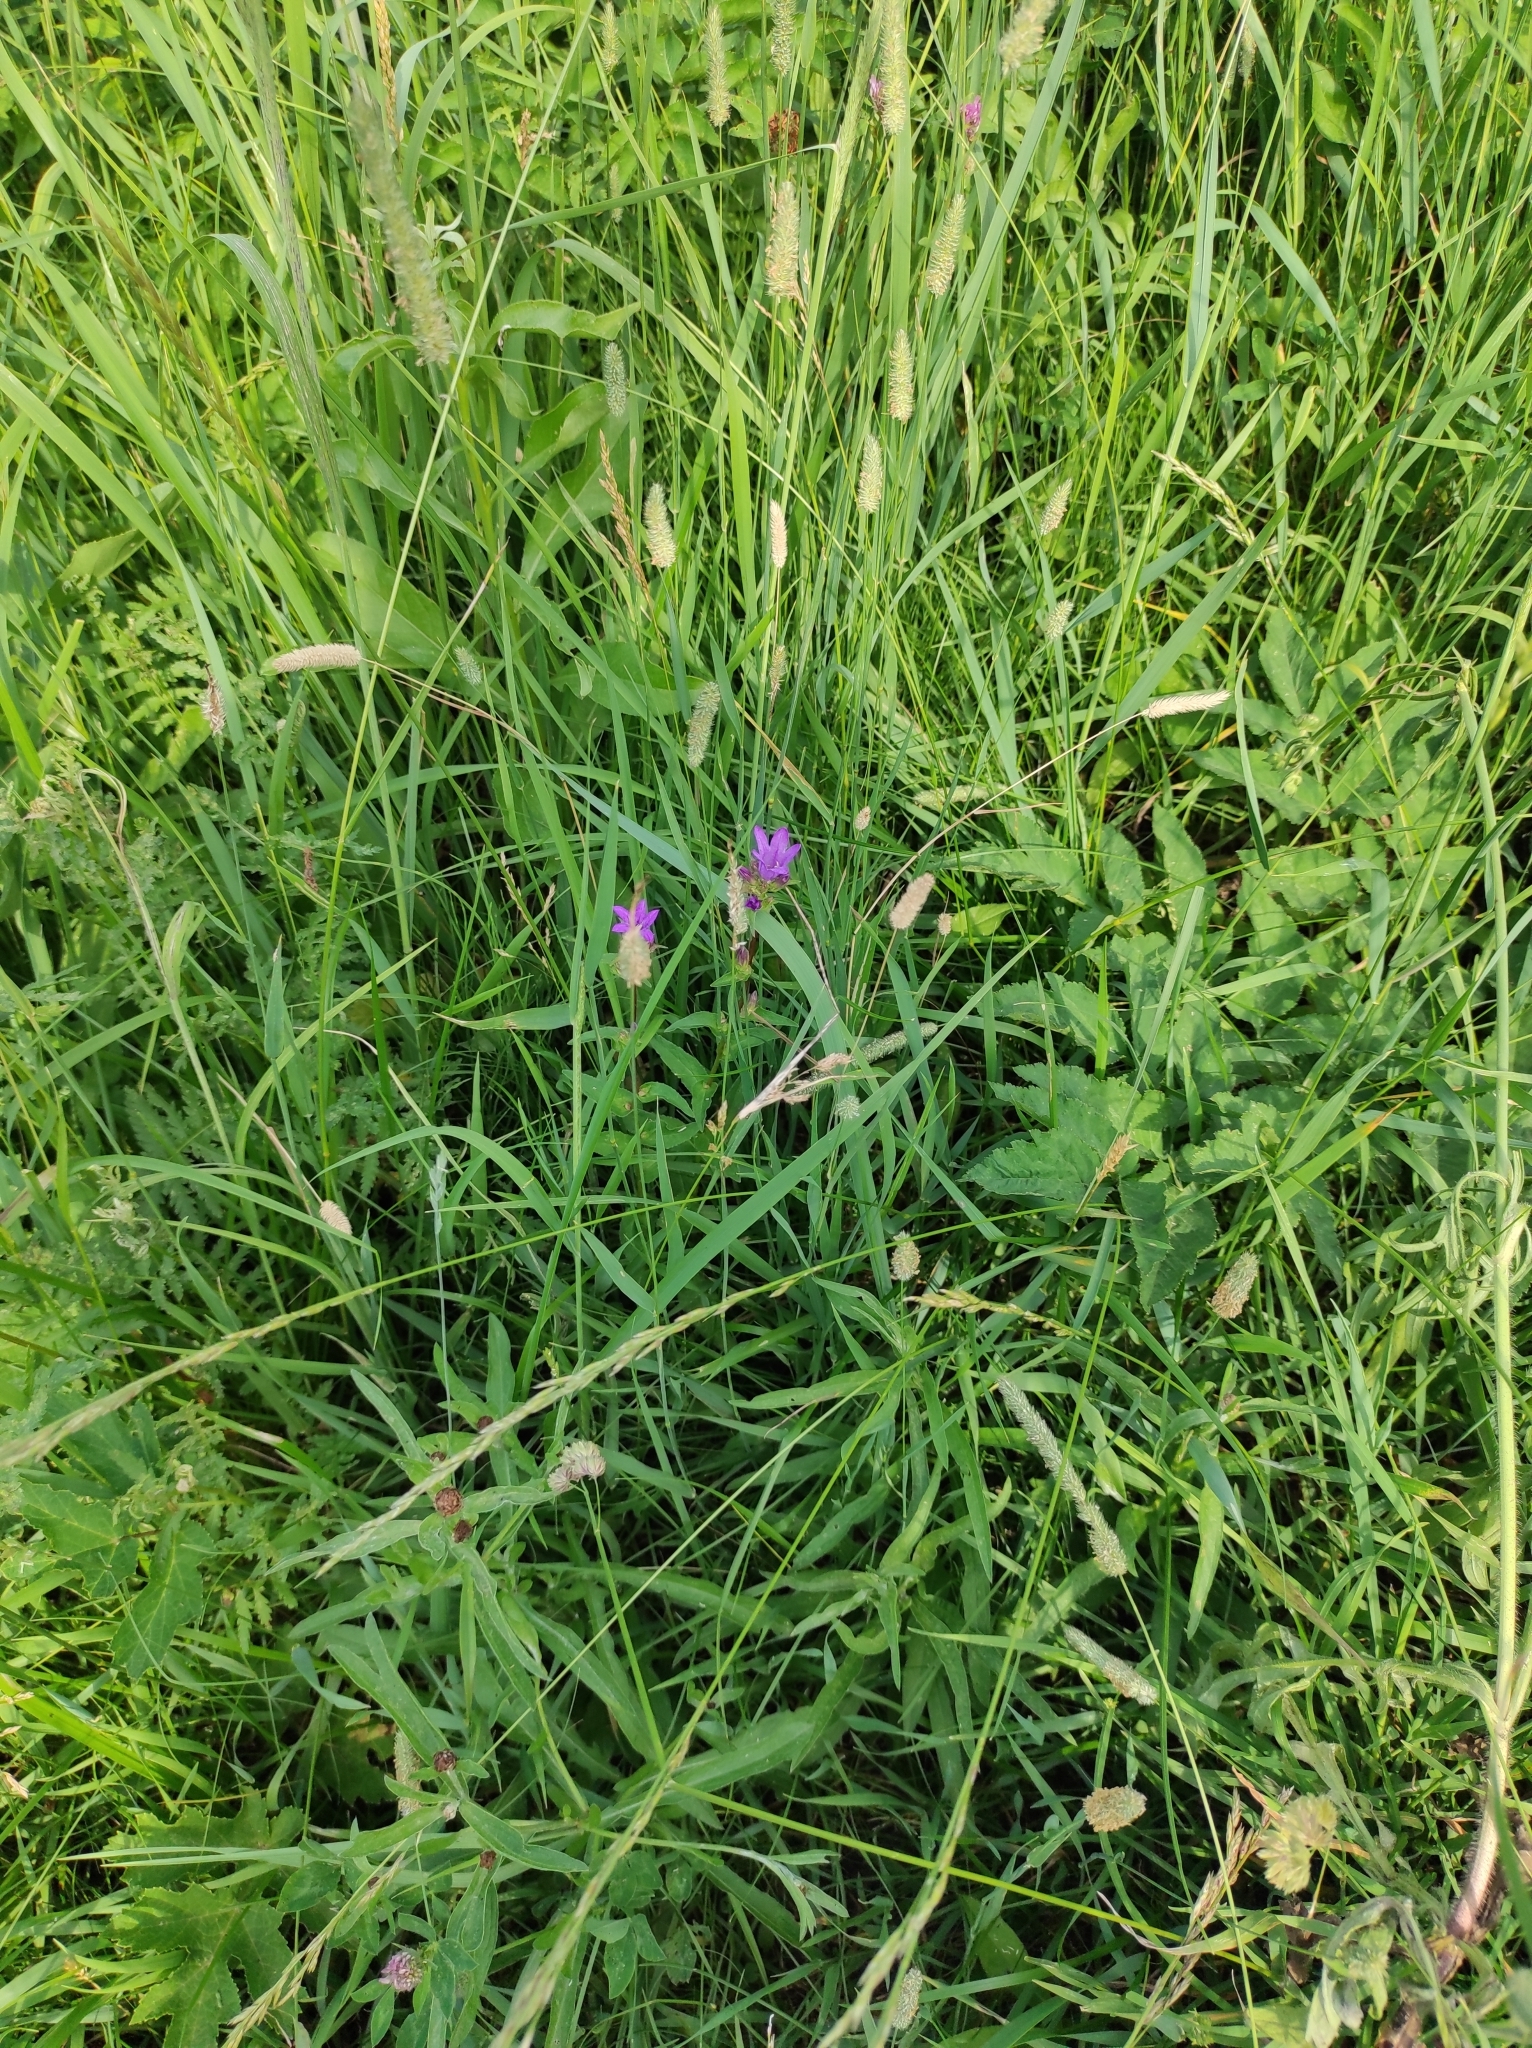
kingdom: Plantae
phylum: Tracheophyta
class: Magnoliopsida
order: Asterales
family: Campanulaceae
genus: Campanula
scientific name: Campanula glomerata
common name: Clustered bellflower
